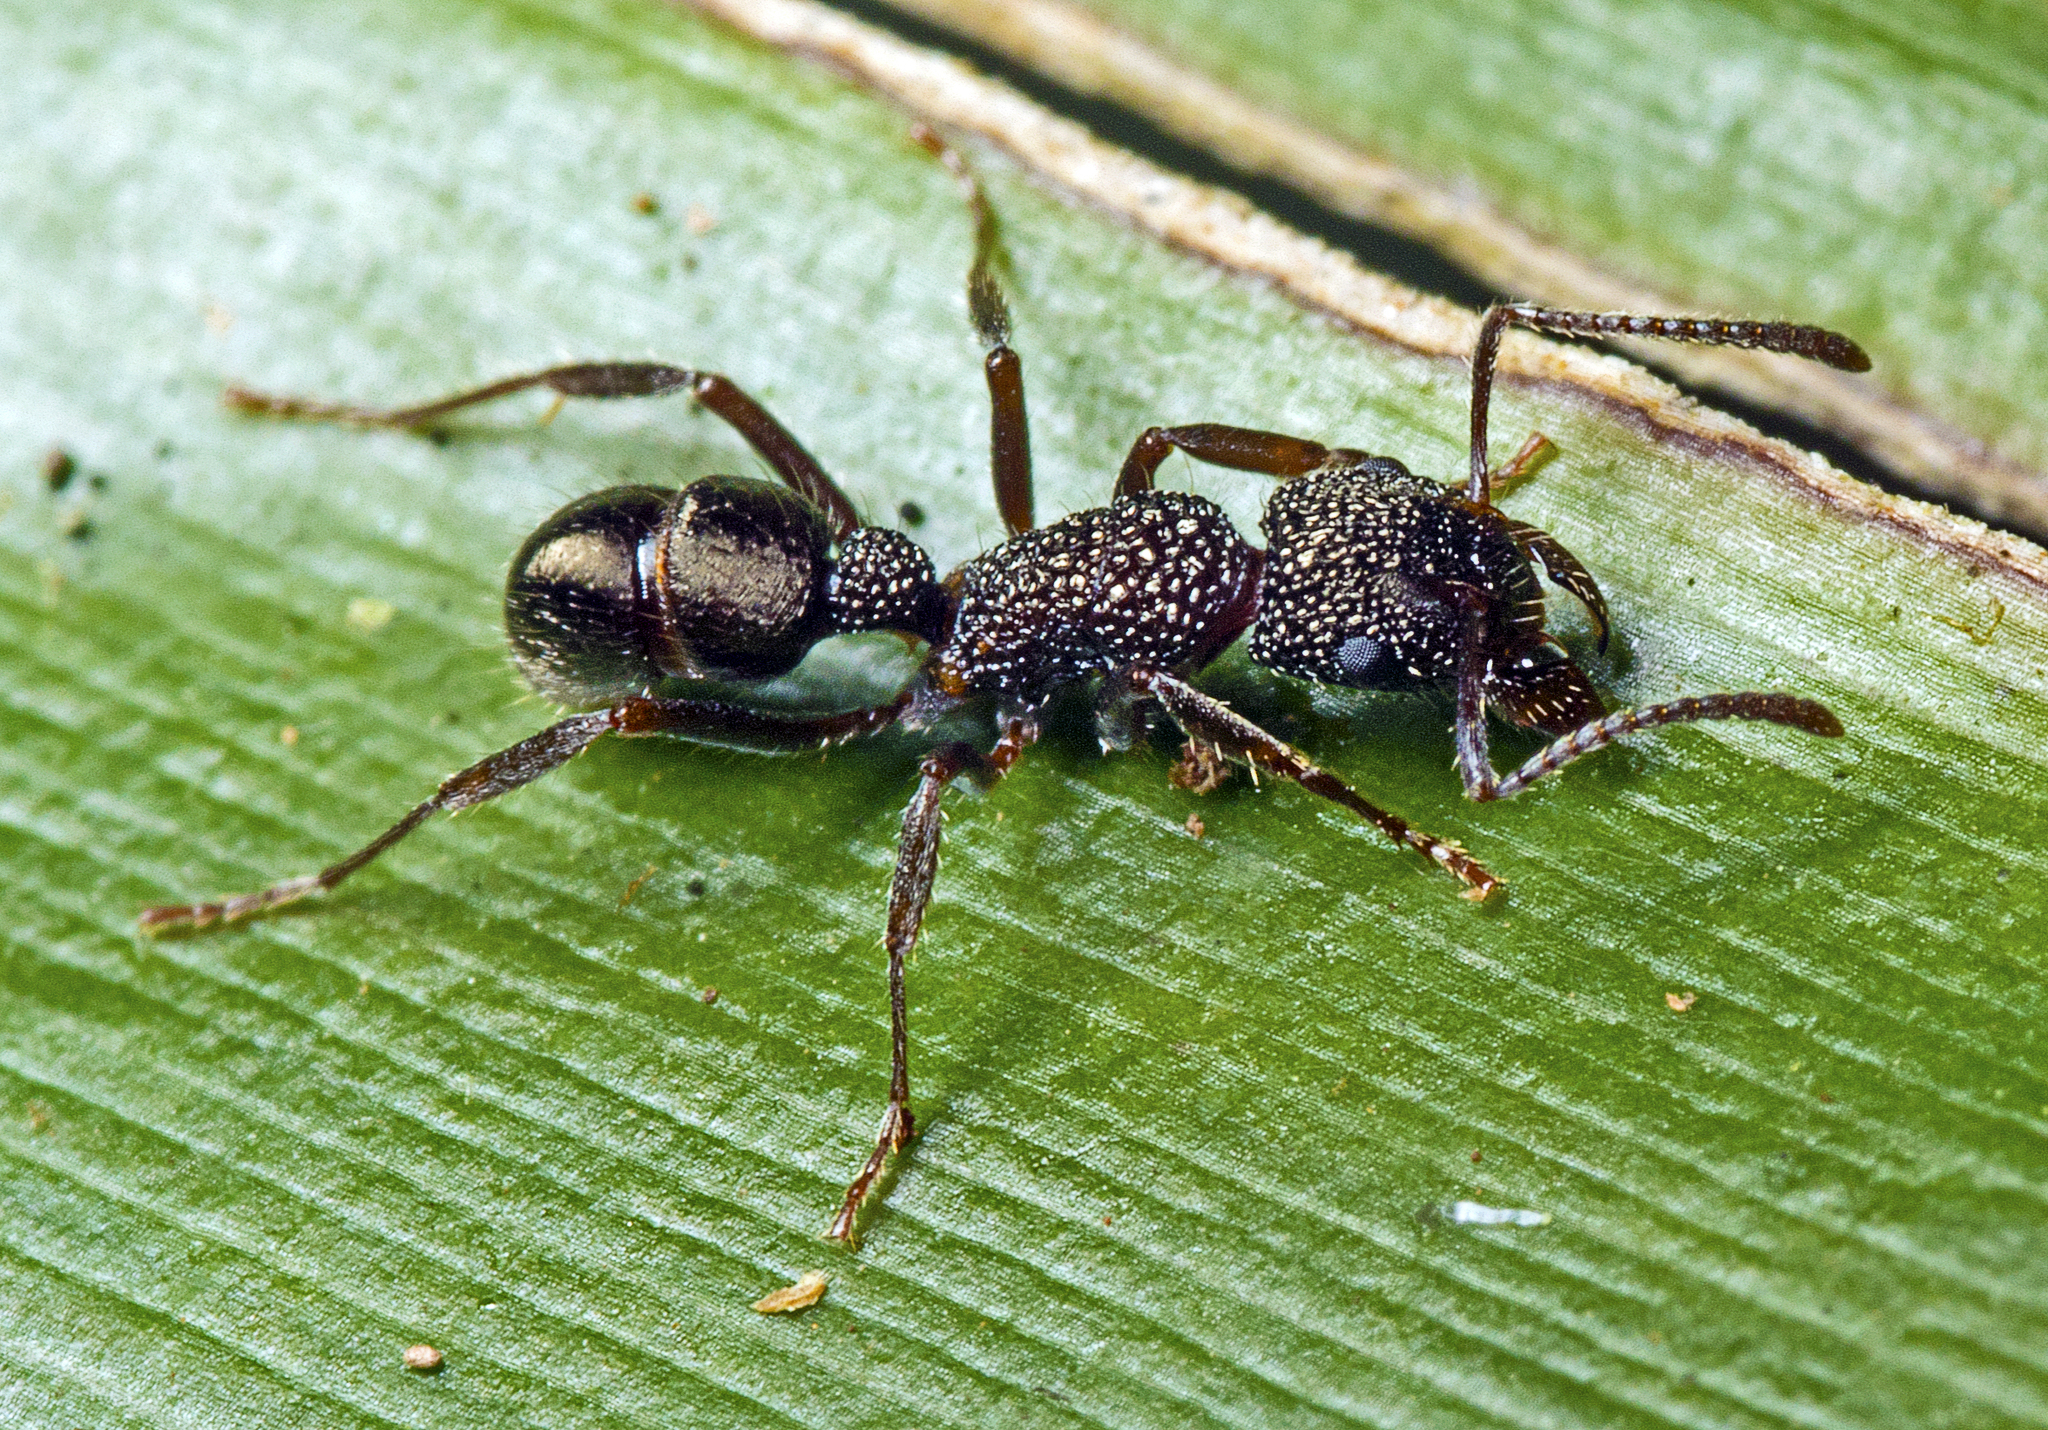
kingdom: Animalia
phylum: Arthropoda
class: Insecta
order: Hymenoptera
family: Formicidae
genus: Rhytidoponera
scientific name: Rhytidoponera anceps
